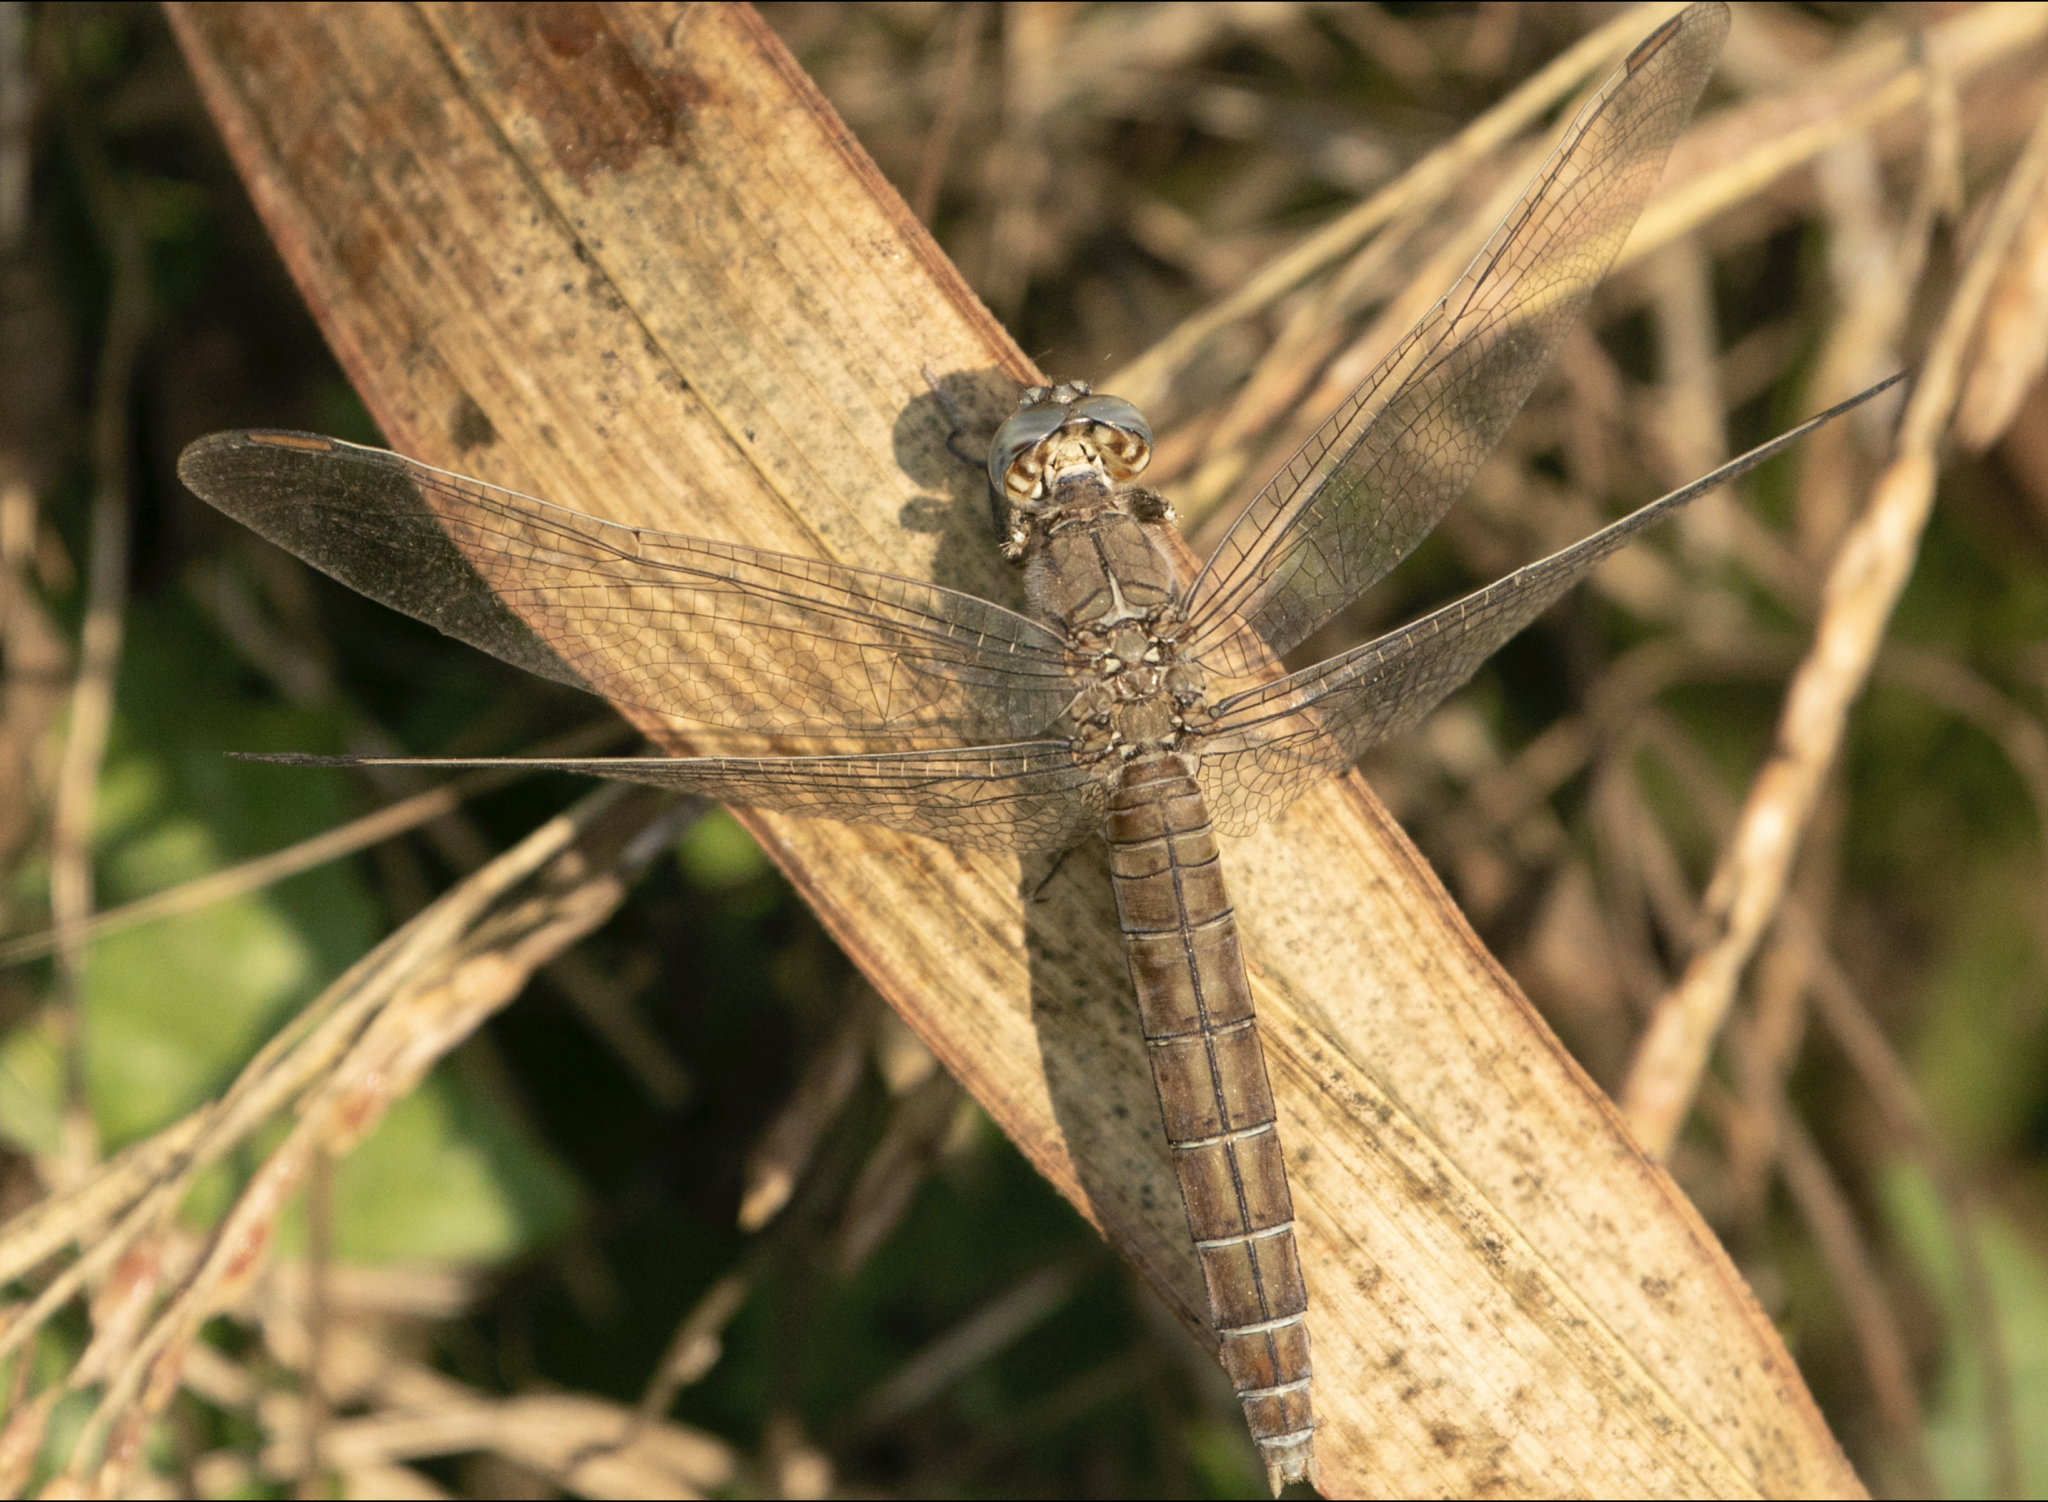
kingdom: Animalia
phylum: Arthropoda
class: Insecta
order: Odonata
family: Libellulidae
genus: Orthetrum
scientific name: Orthetrum brunneum
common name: Southern skimmer
